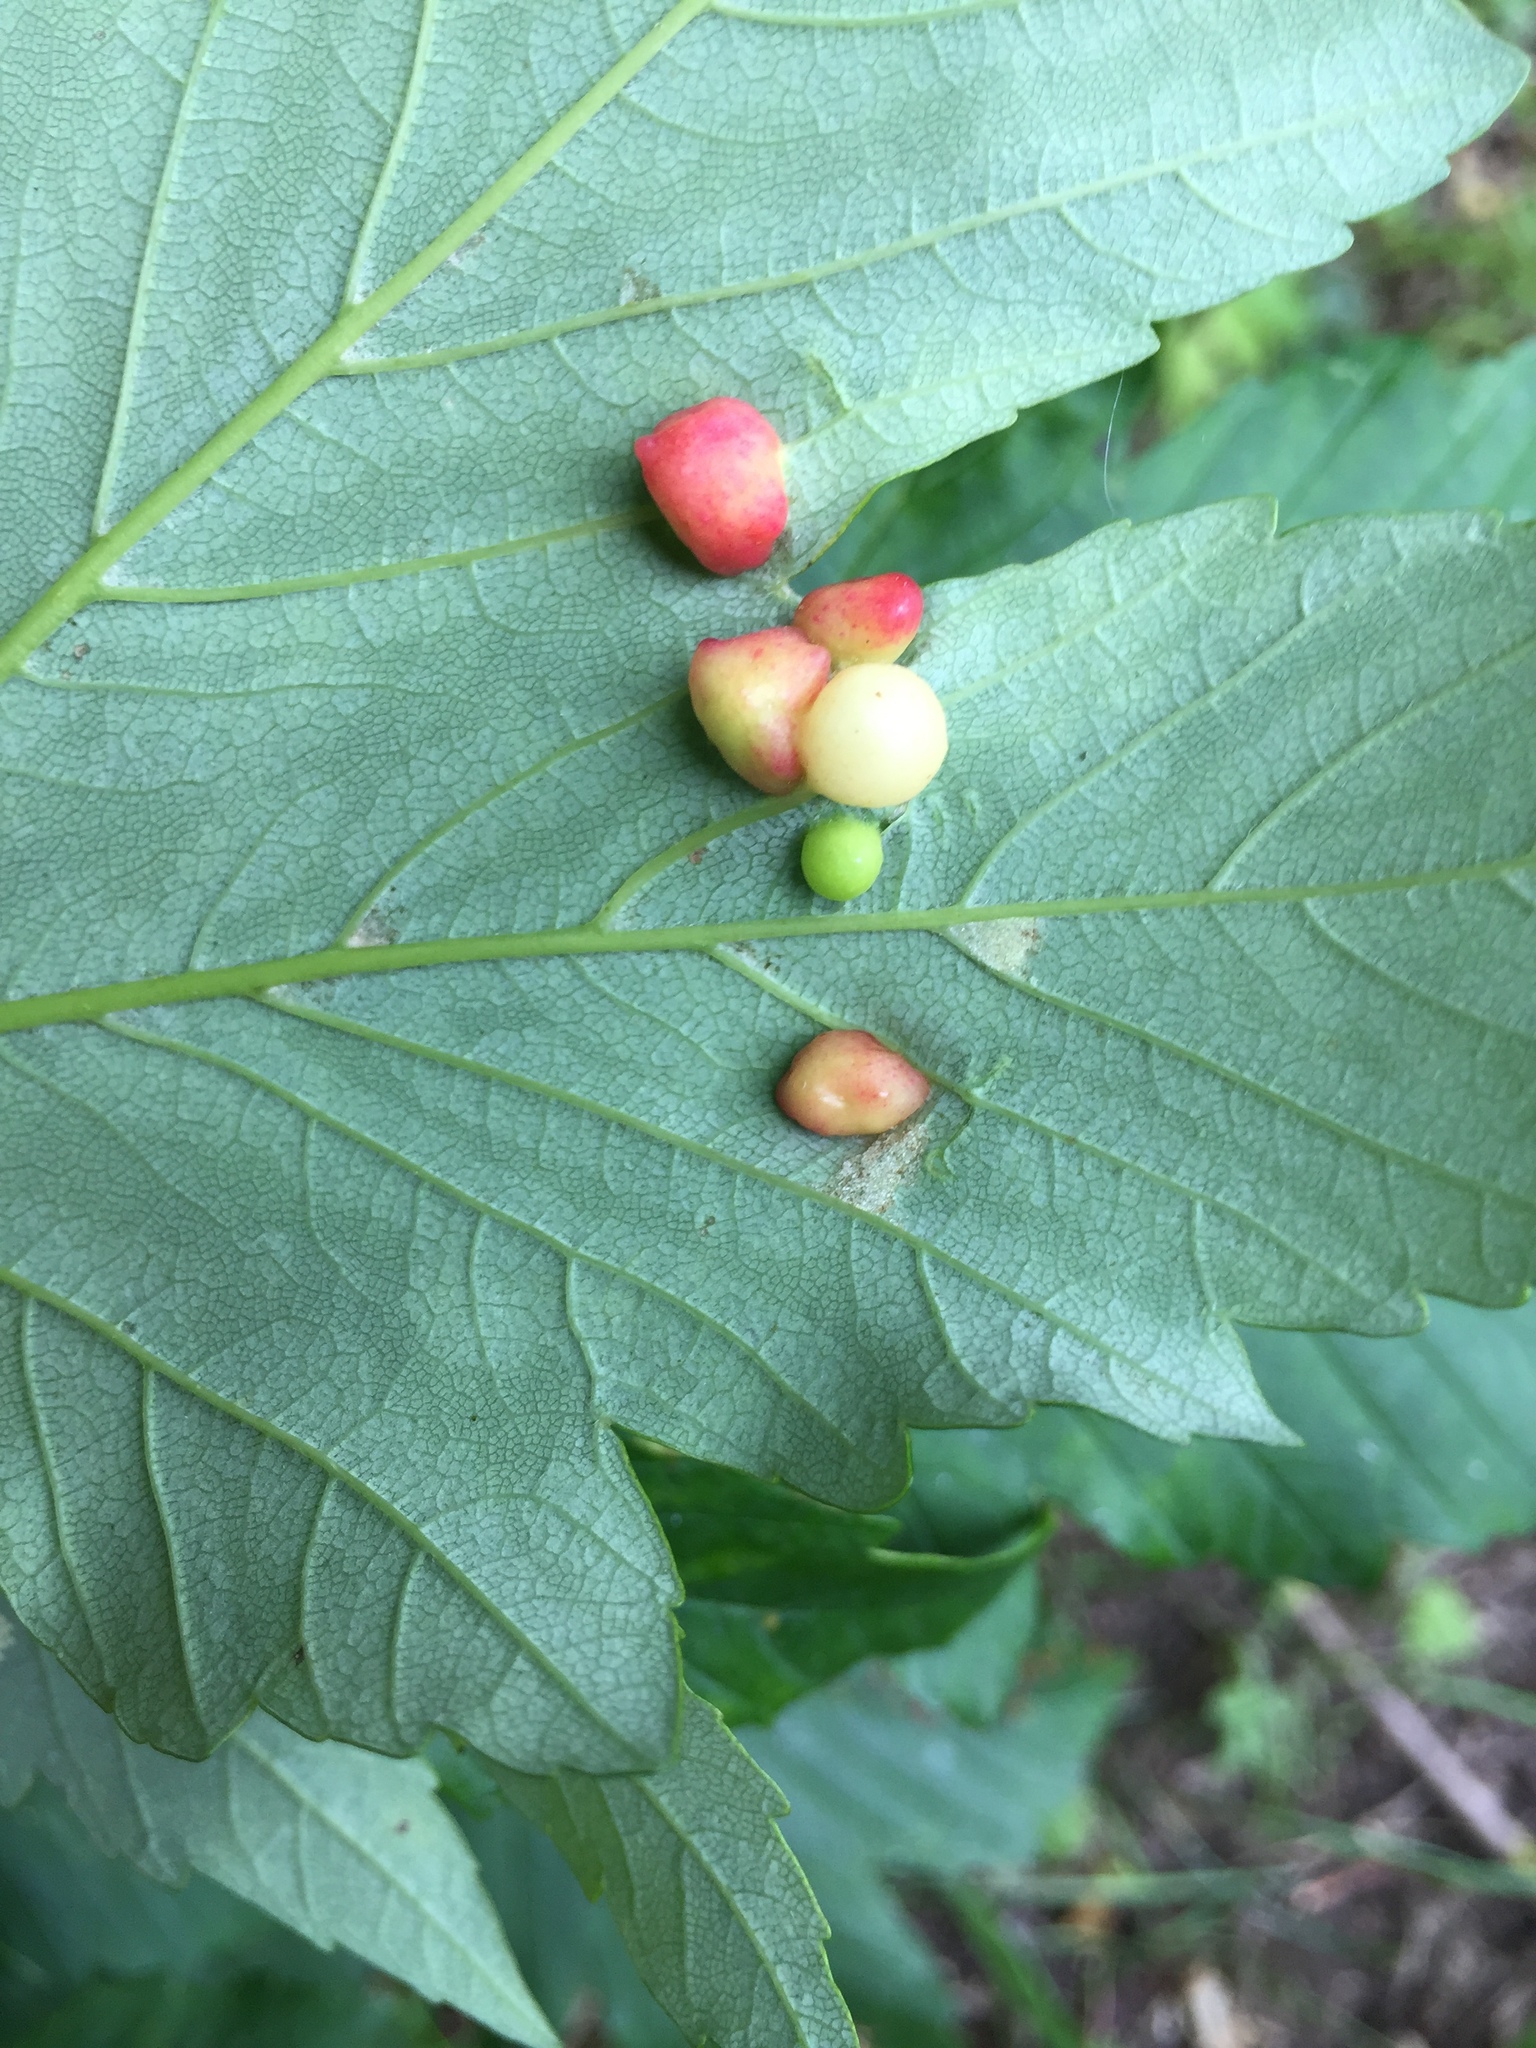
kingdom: Animalia
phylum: Arthropoda
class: Insecta
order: Hymenoptera
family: Cynipidae
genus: Pediaspis
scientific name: Pediaspis aceris
